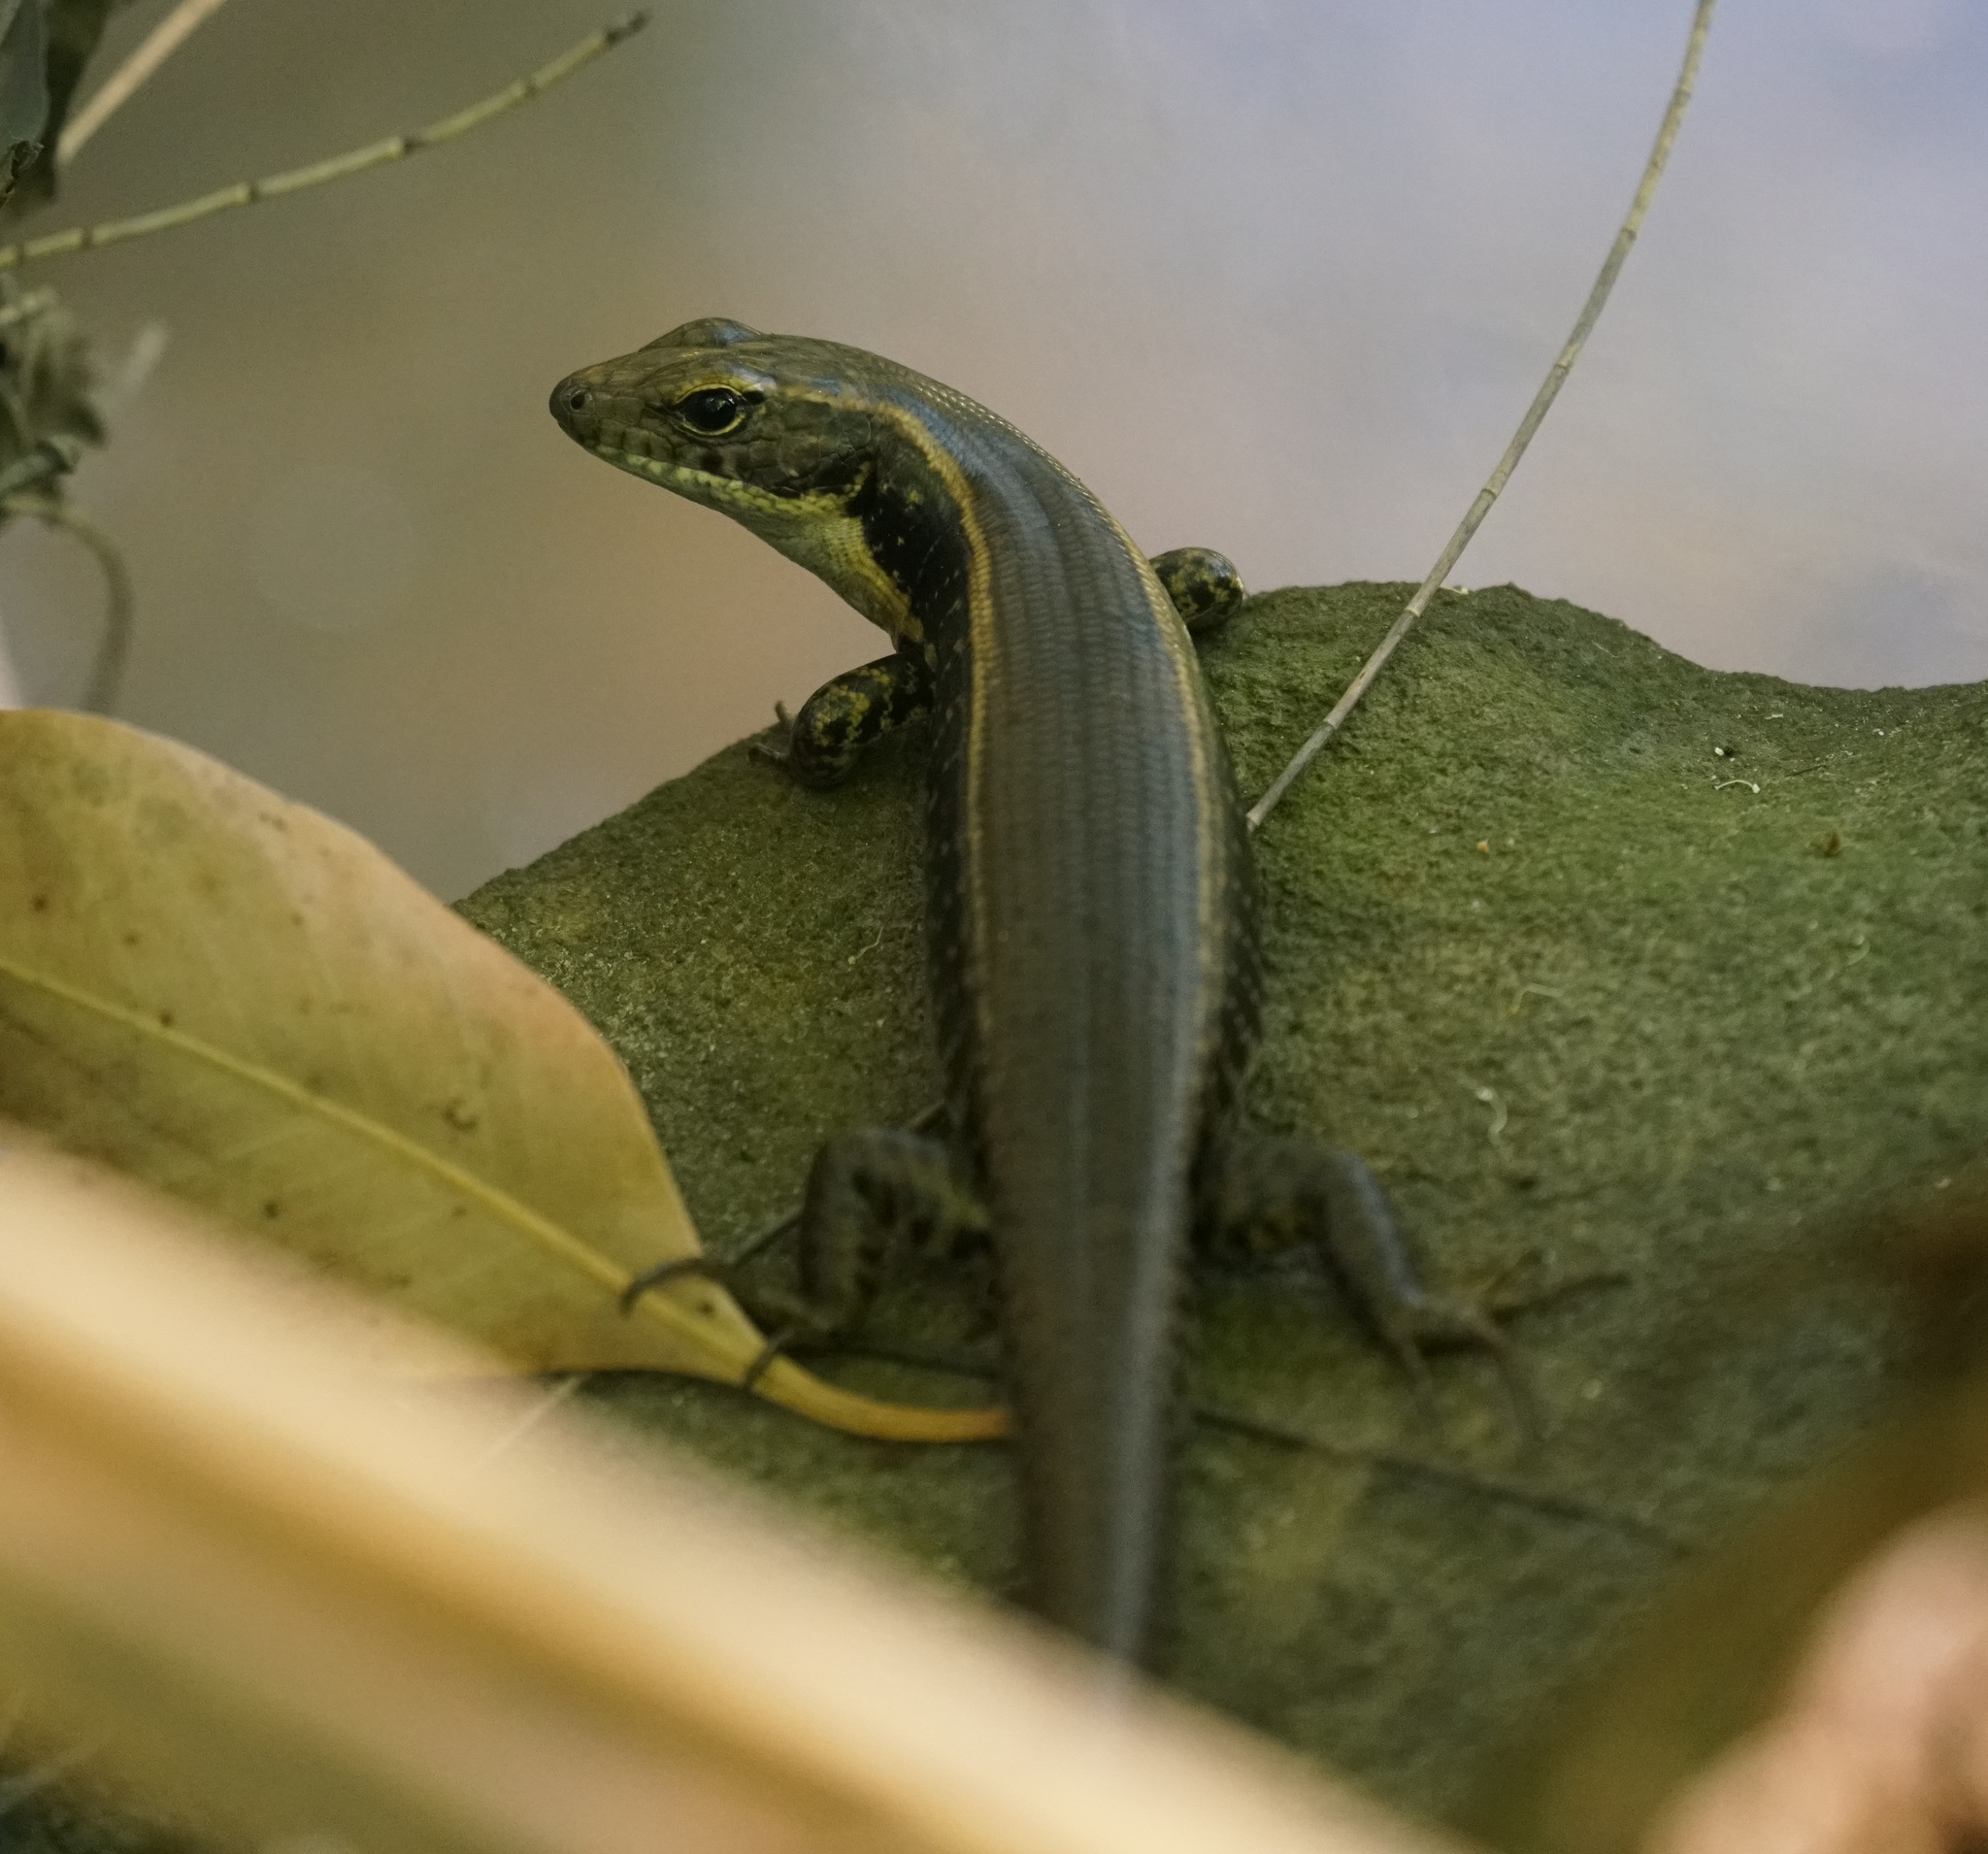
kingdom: Animalia
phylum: Chordata
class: Squamata
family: Scincidae
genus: Eulamprus
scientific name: Eulamprus quoyii
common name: Eastern water skink
